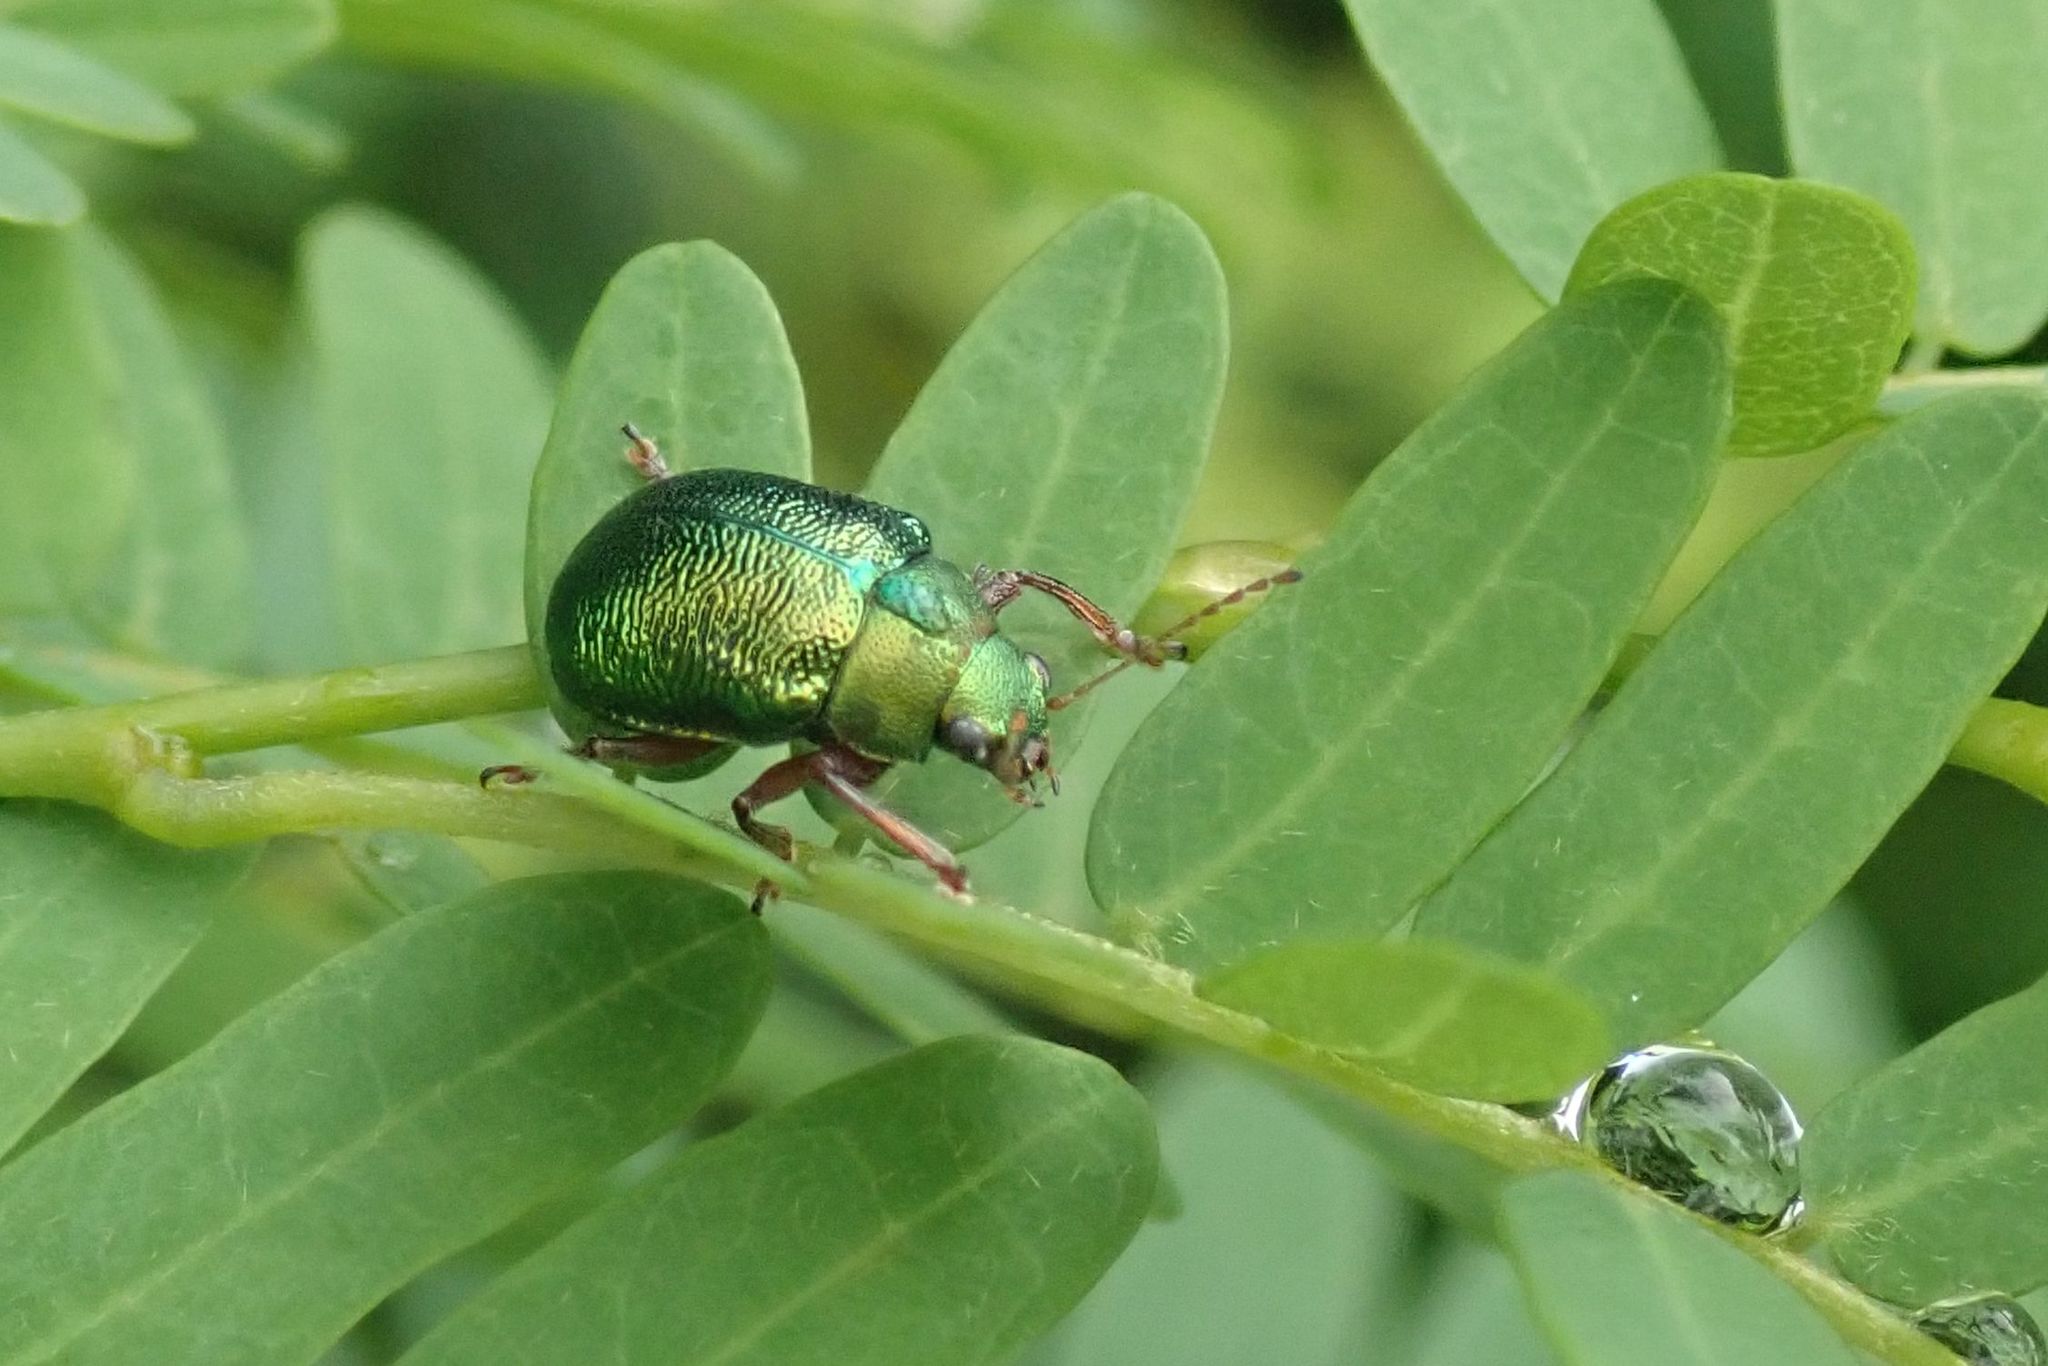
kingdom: Animalia
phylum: Arthropoda
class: Insecta
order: Coleoptera
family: Chrysomelidae
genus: Colasposoma
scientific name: Colasposoma
